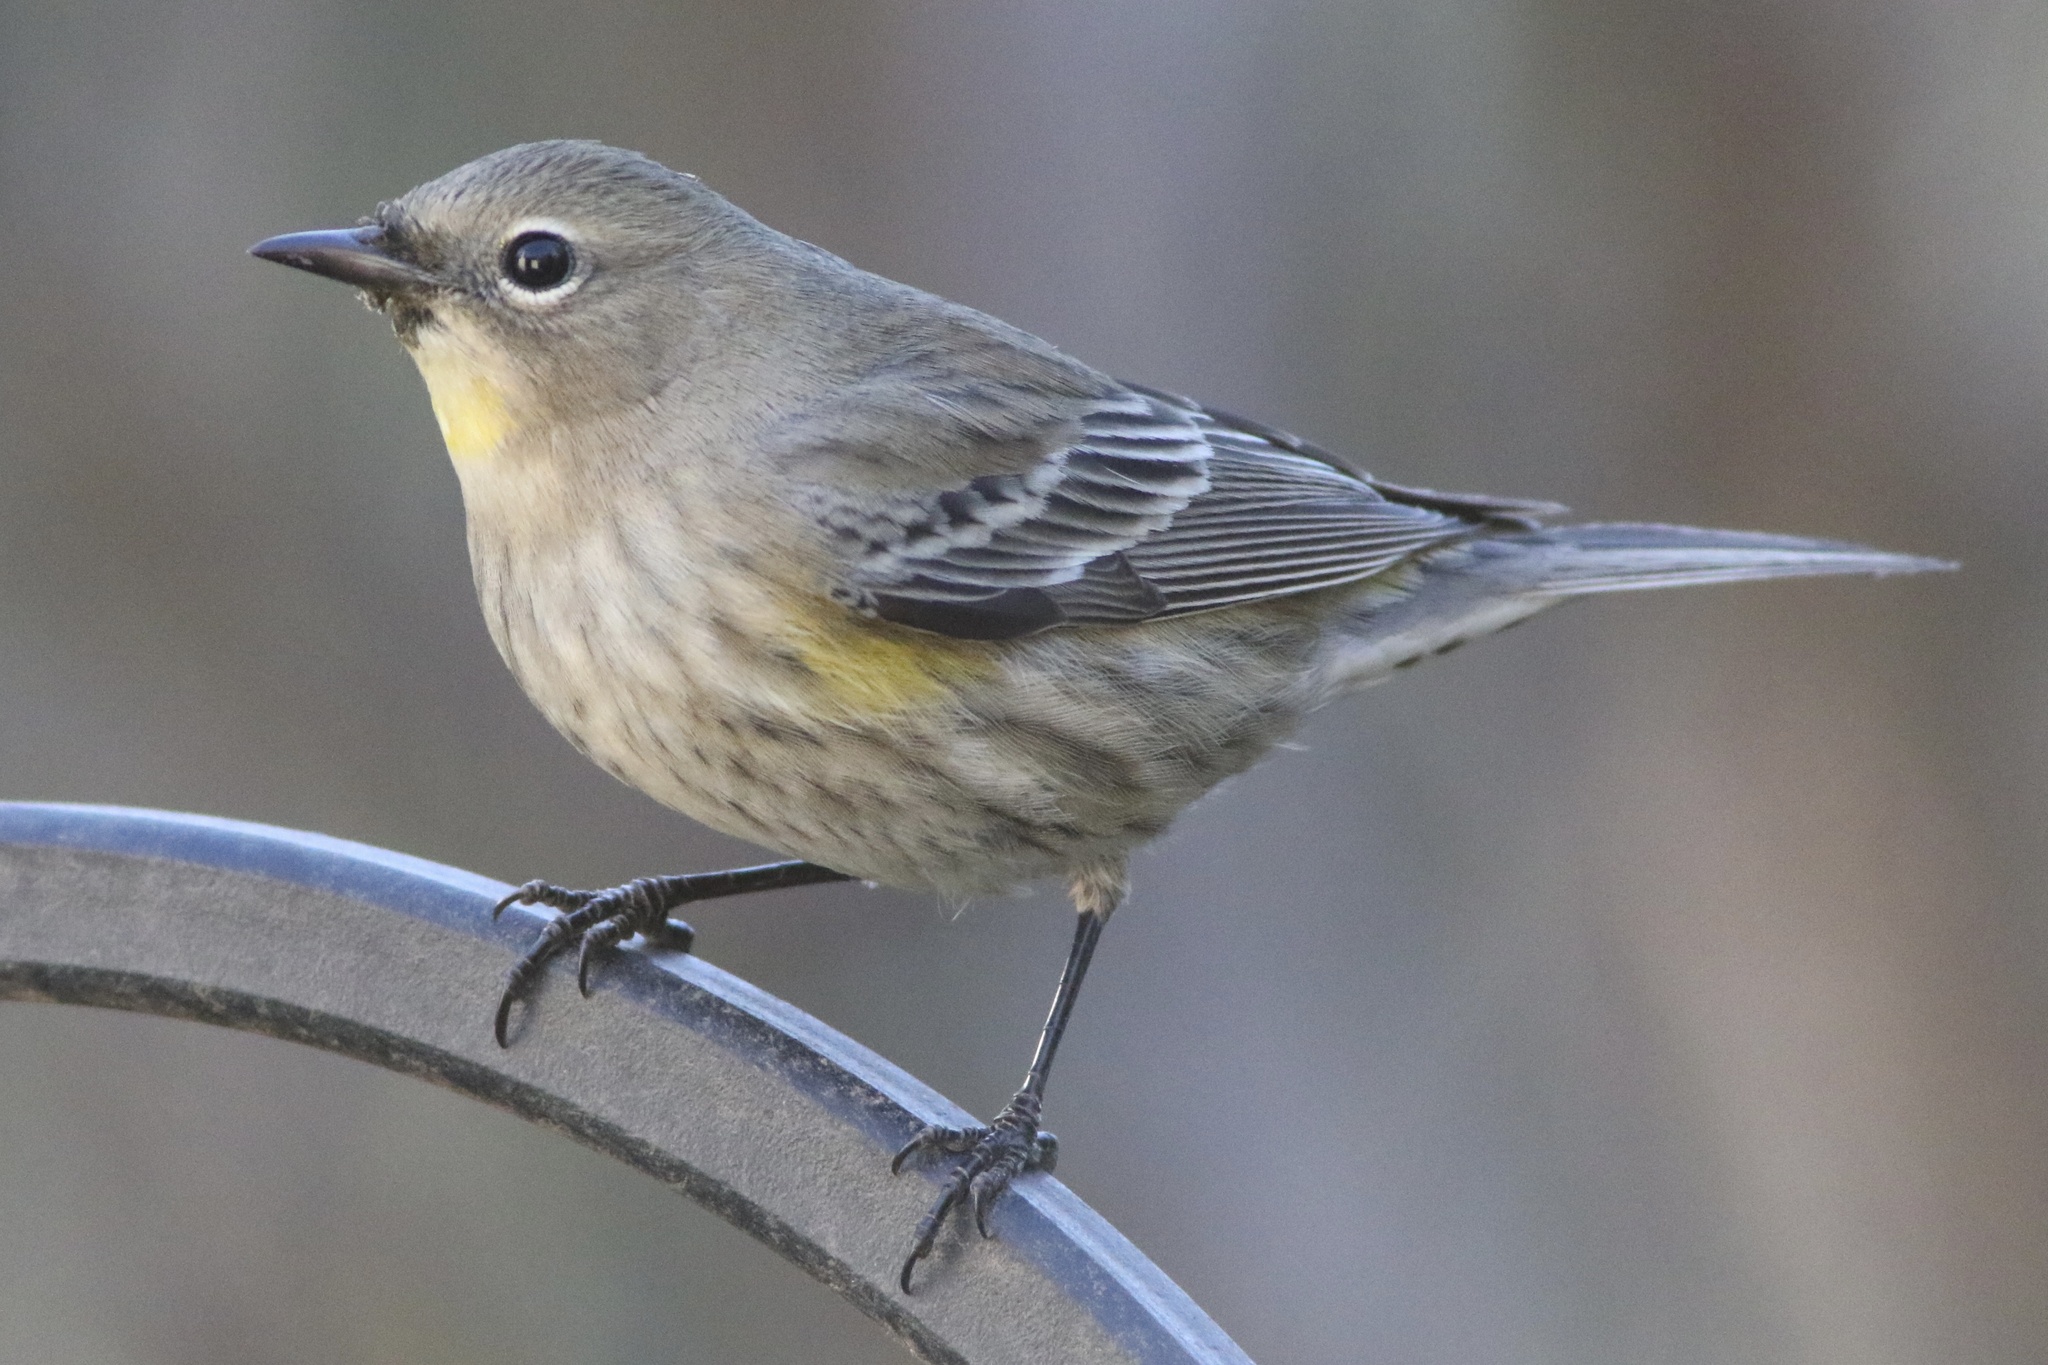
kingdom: Animalia
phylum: Chordata
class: Aves
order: Passeriformes
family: Parulidae
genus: Setophaga
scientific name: Setophaga coronata
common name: Myrtle warbler
